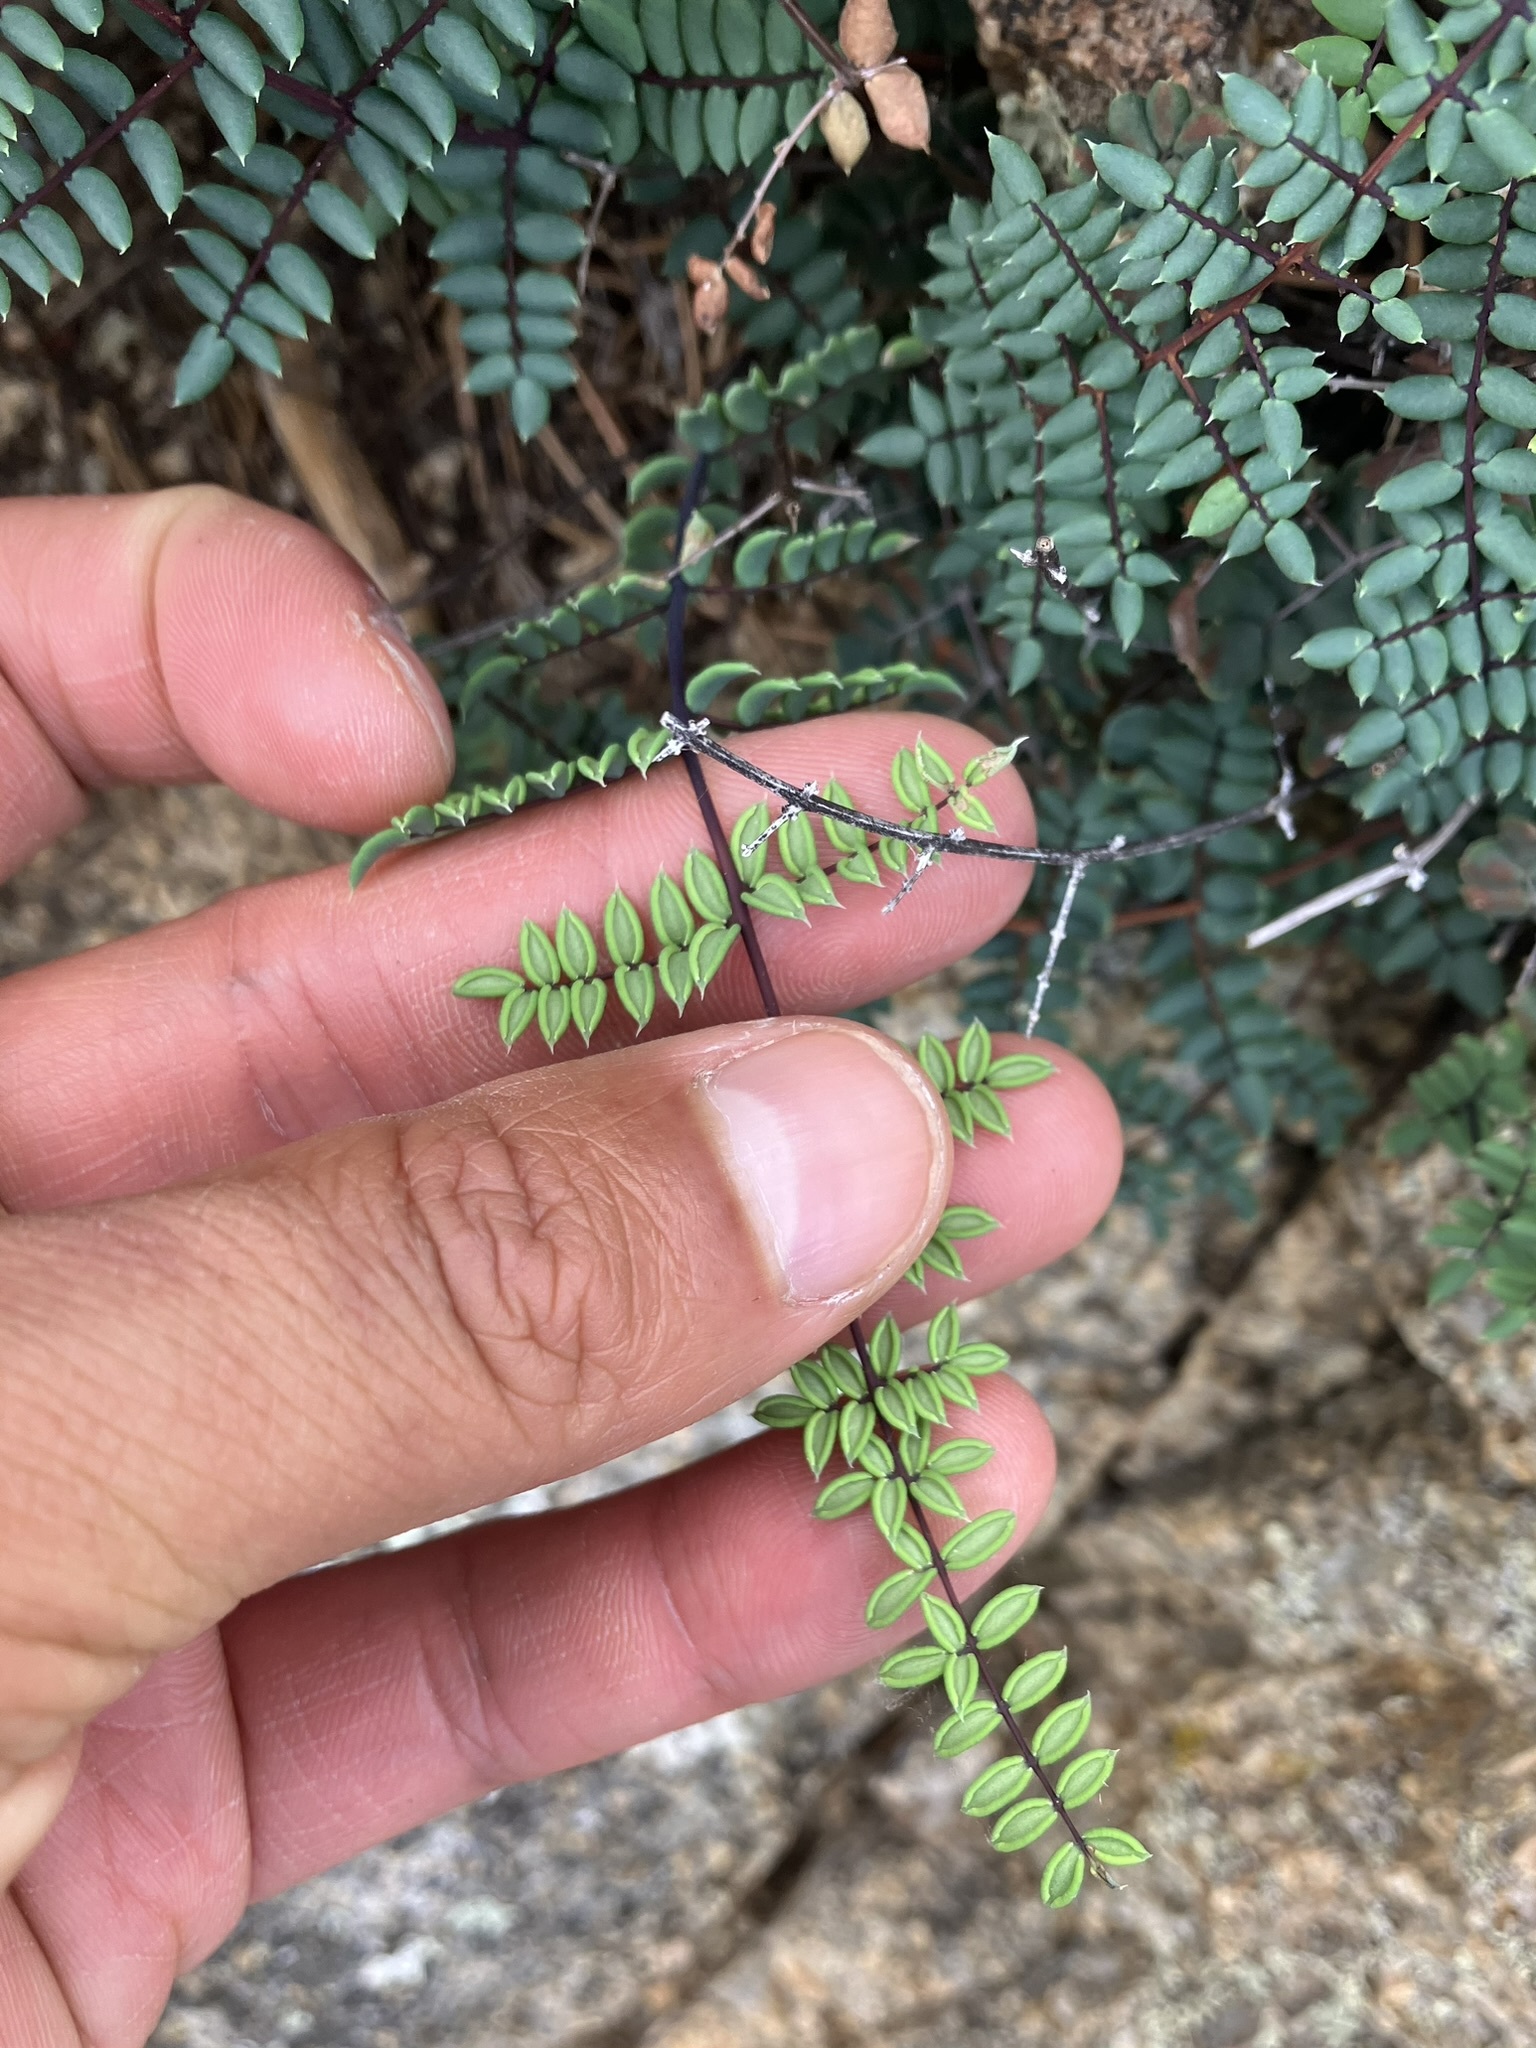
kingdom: Plantae
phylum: Tracheophyta
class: Polypodiopsida
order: Polypodiales
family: Pteridaceae
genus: Pellaea
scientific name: Pellaea truncata
